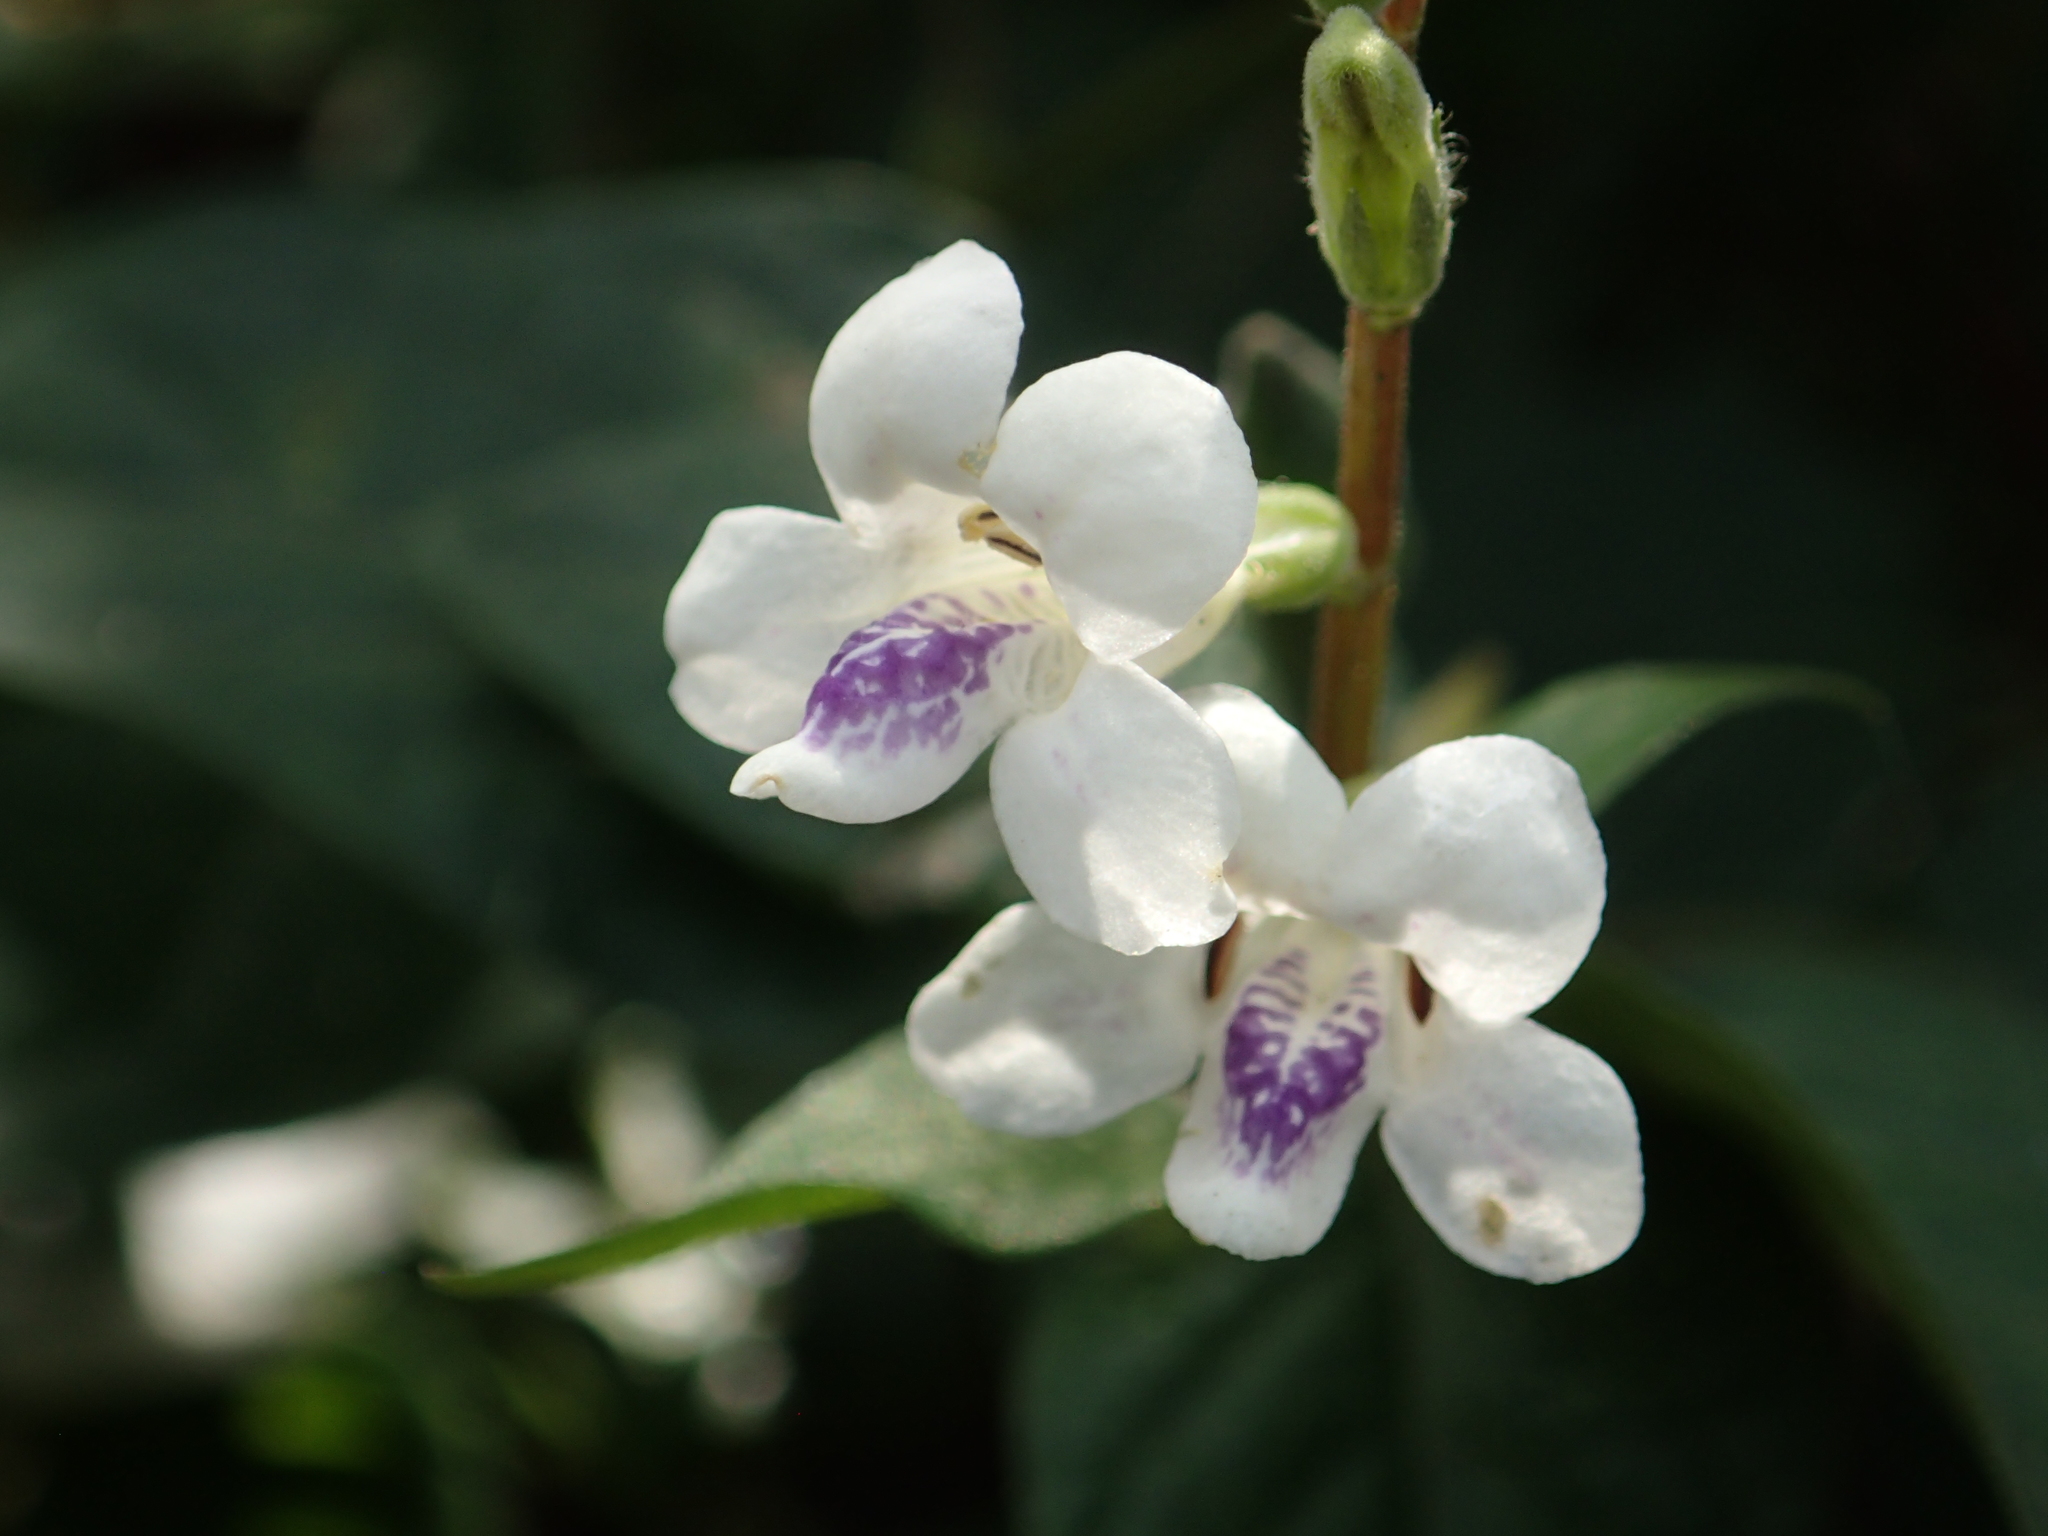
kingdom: Plantae
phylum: Tracheophyta
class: Magnoliopsida
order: Lamiales
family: Acanthaceae
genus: Asystasia
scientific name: Asystasia intrusa
